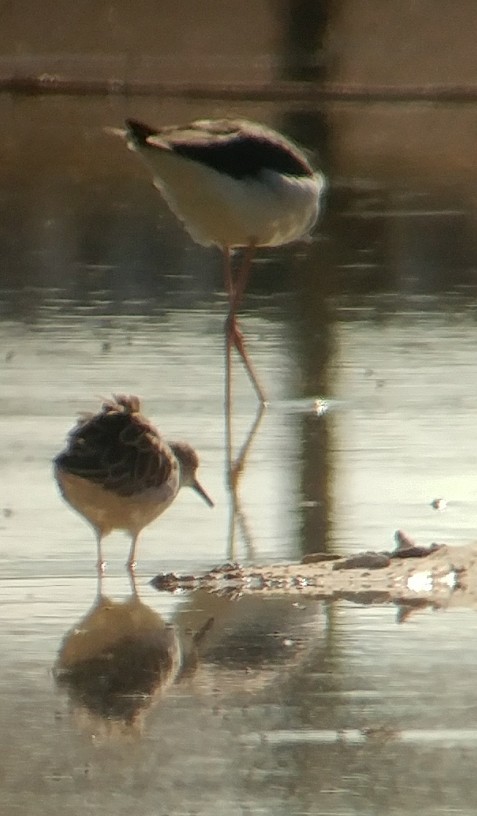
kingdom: Animalia
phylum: Chordata
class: Aves
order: Charadriiformes
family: Scolopacidae
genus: Calidris
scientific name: Calidris pugnax
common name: Ruff
